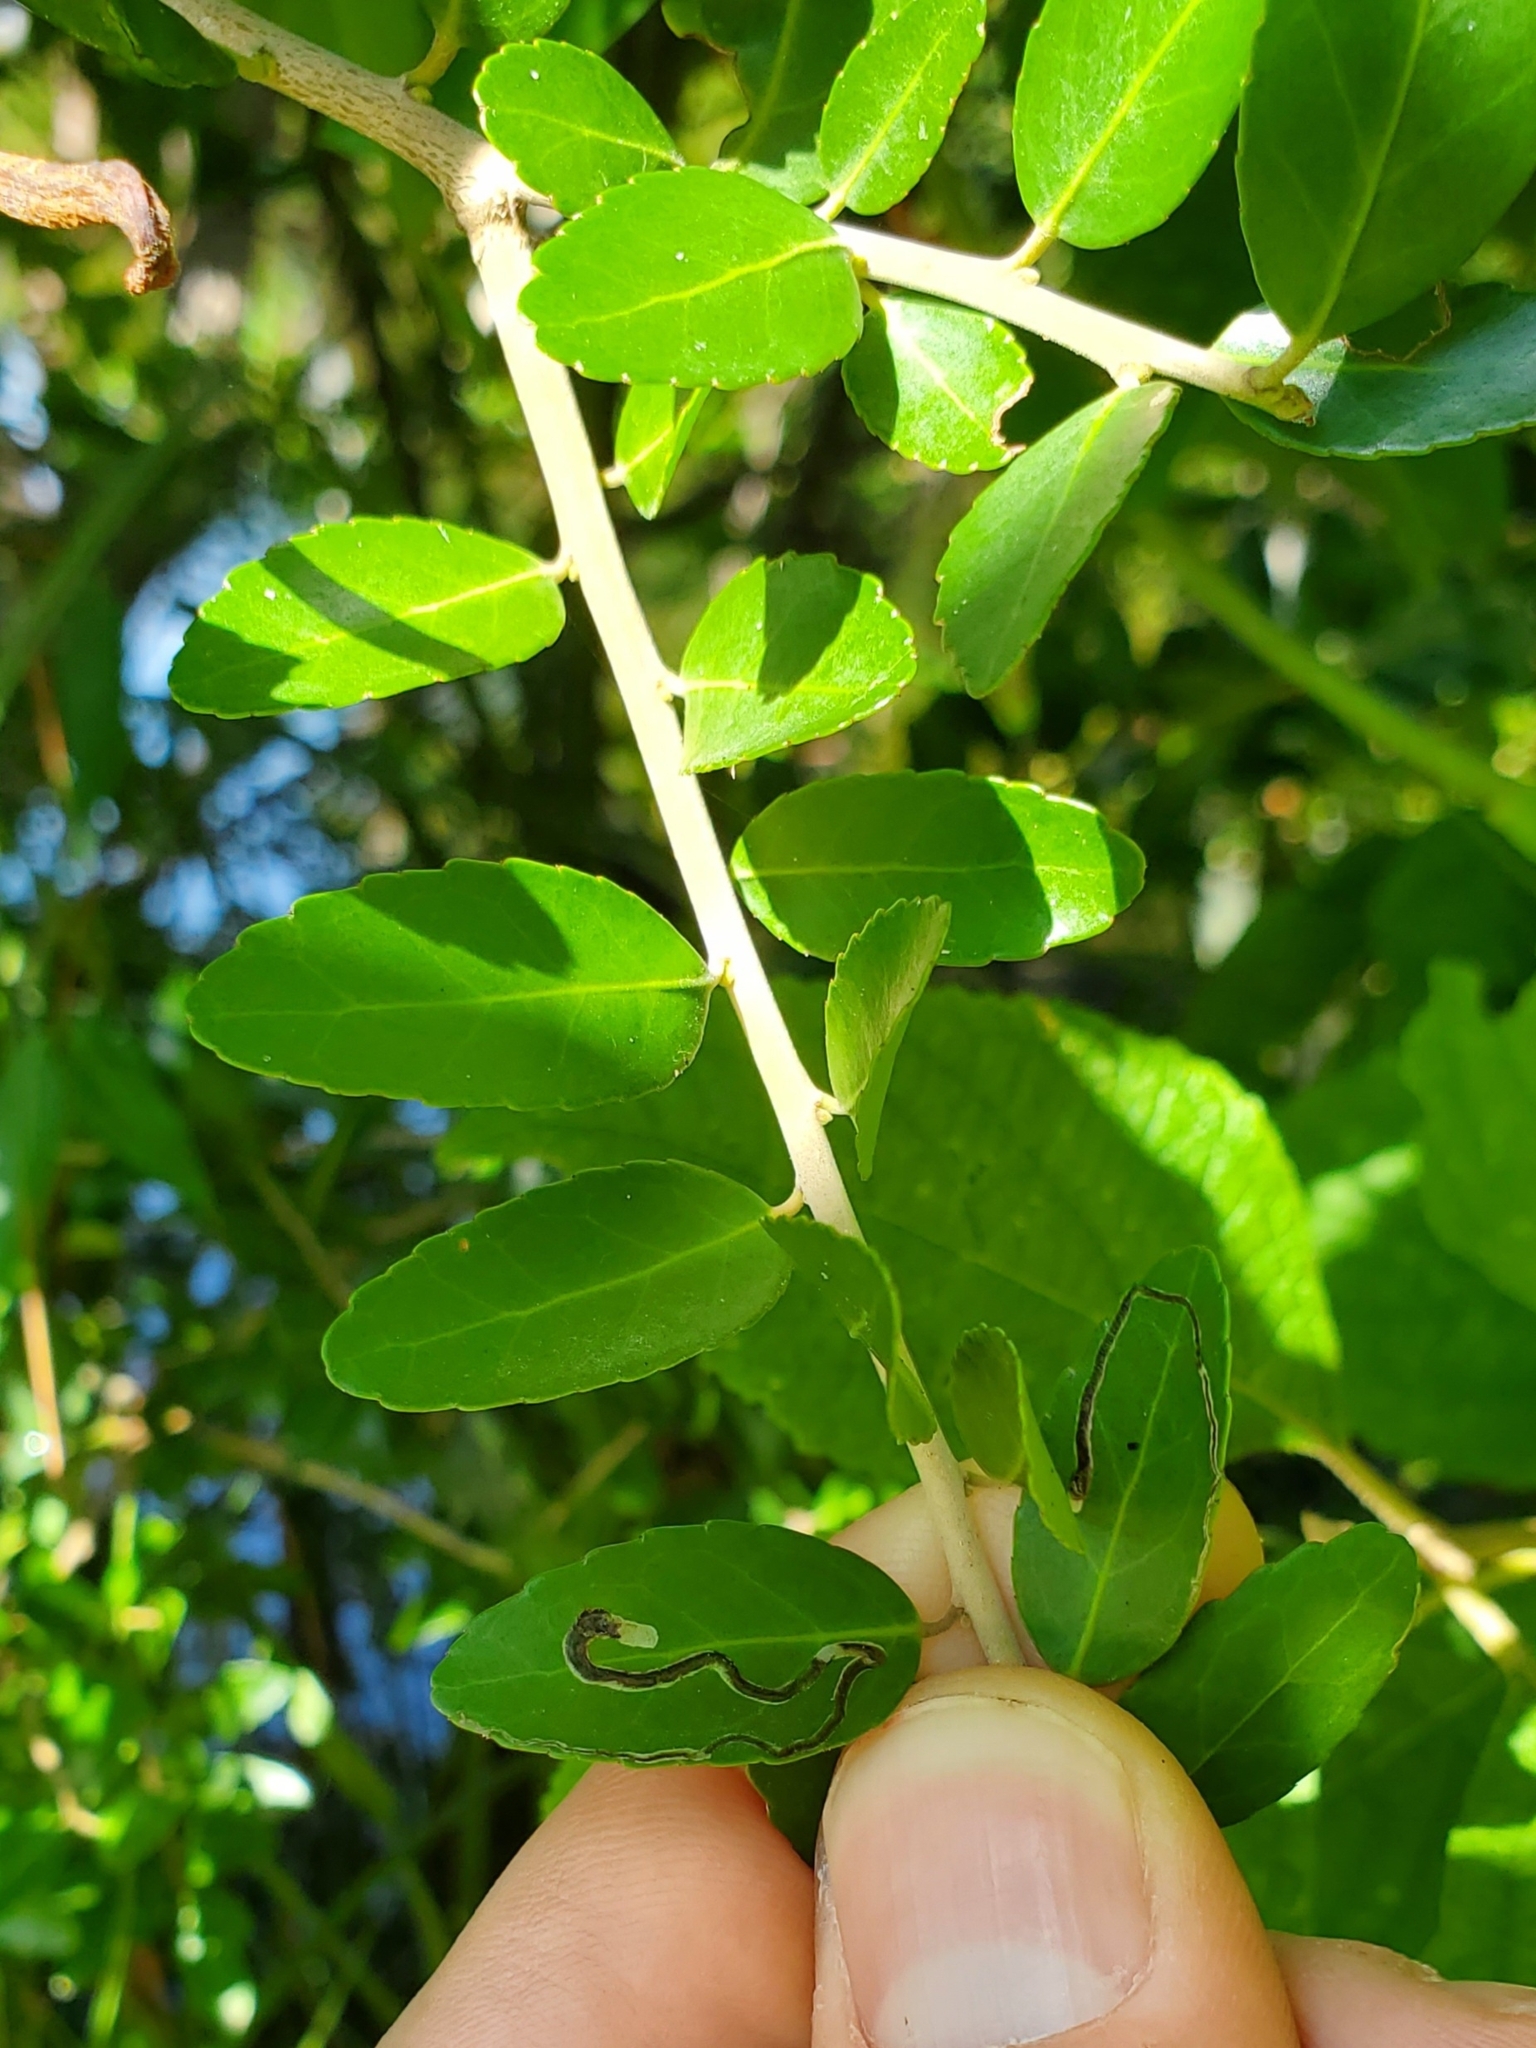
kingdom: Animalia
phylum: Arthropoda
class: Insecta
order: Diptera
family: Agromyzidae
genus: Phytomyza
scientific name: Phytomyza vomitoriae
